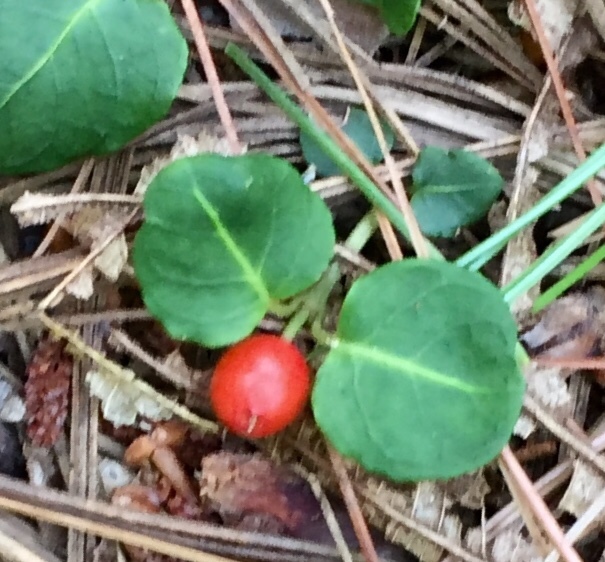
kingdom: Plantae
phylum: Tracheophyta
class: Magnoliopsida
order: Gentianales
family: Rubiaceae
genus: Mitchella
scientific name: Mitchella repens
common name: Partridge-berry
